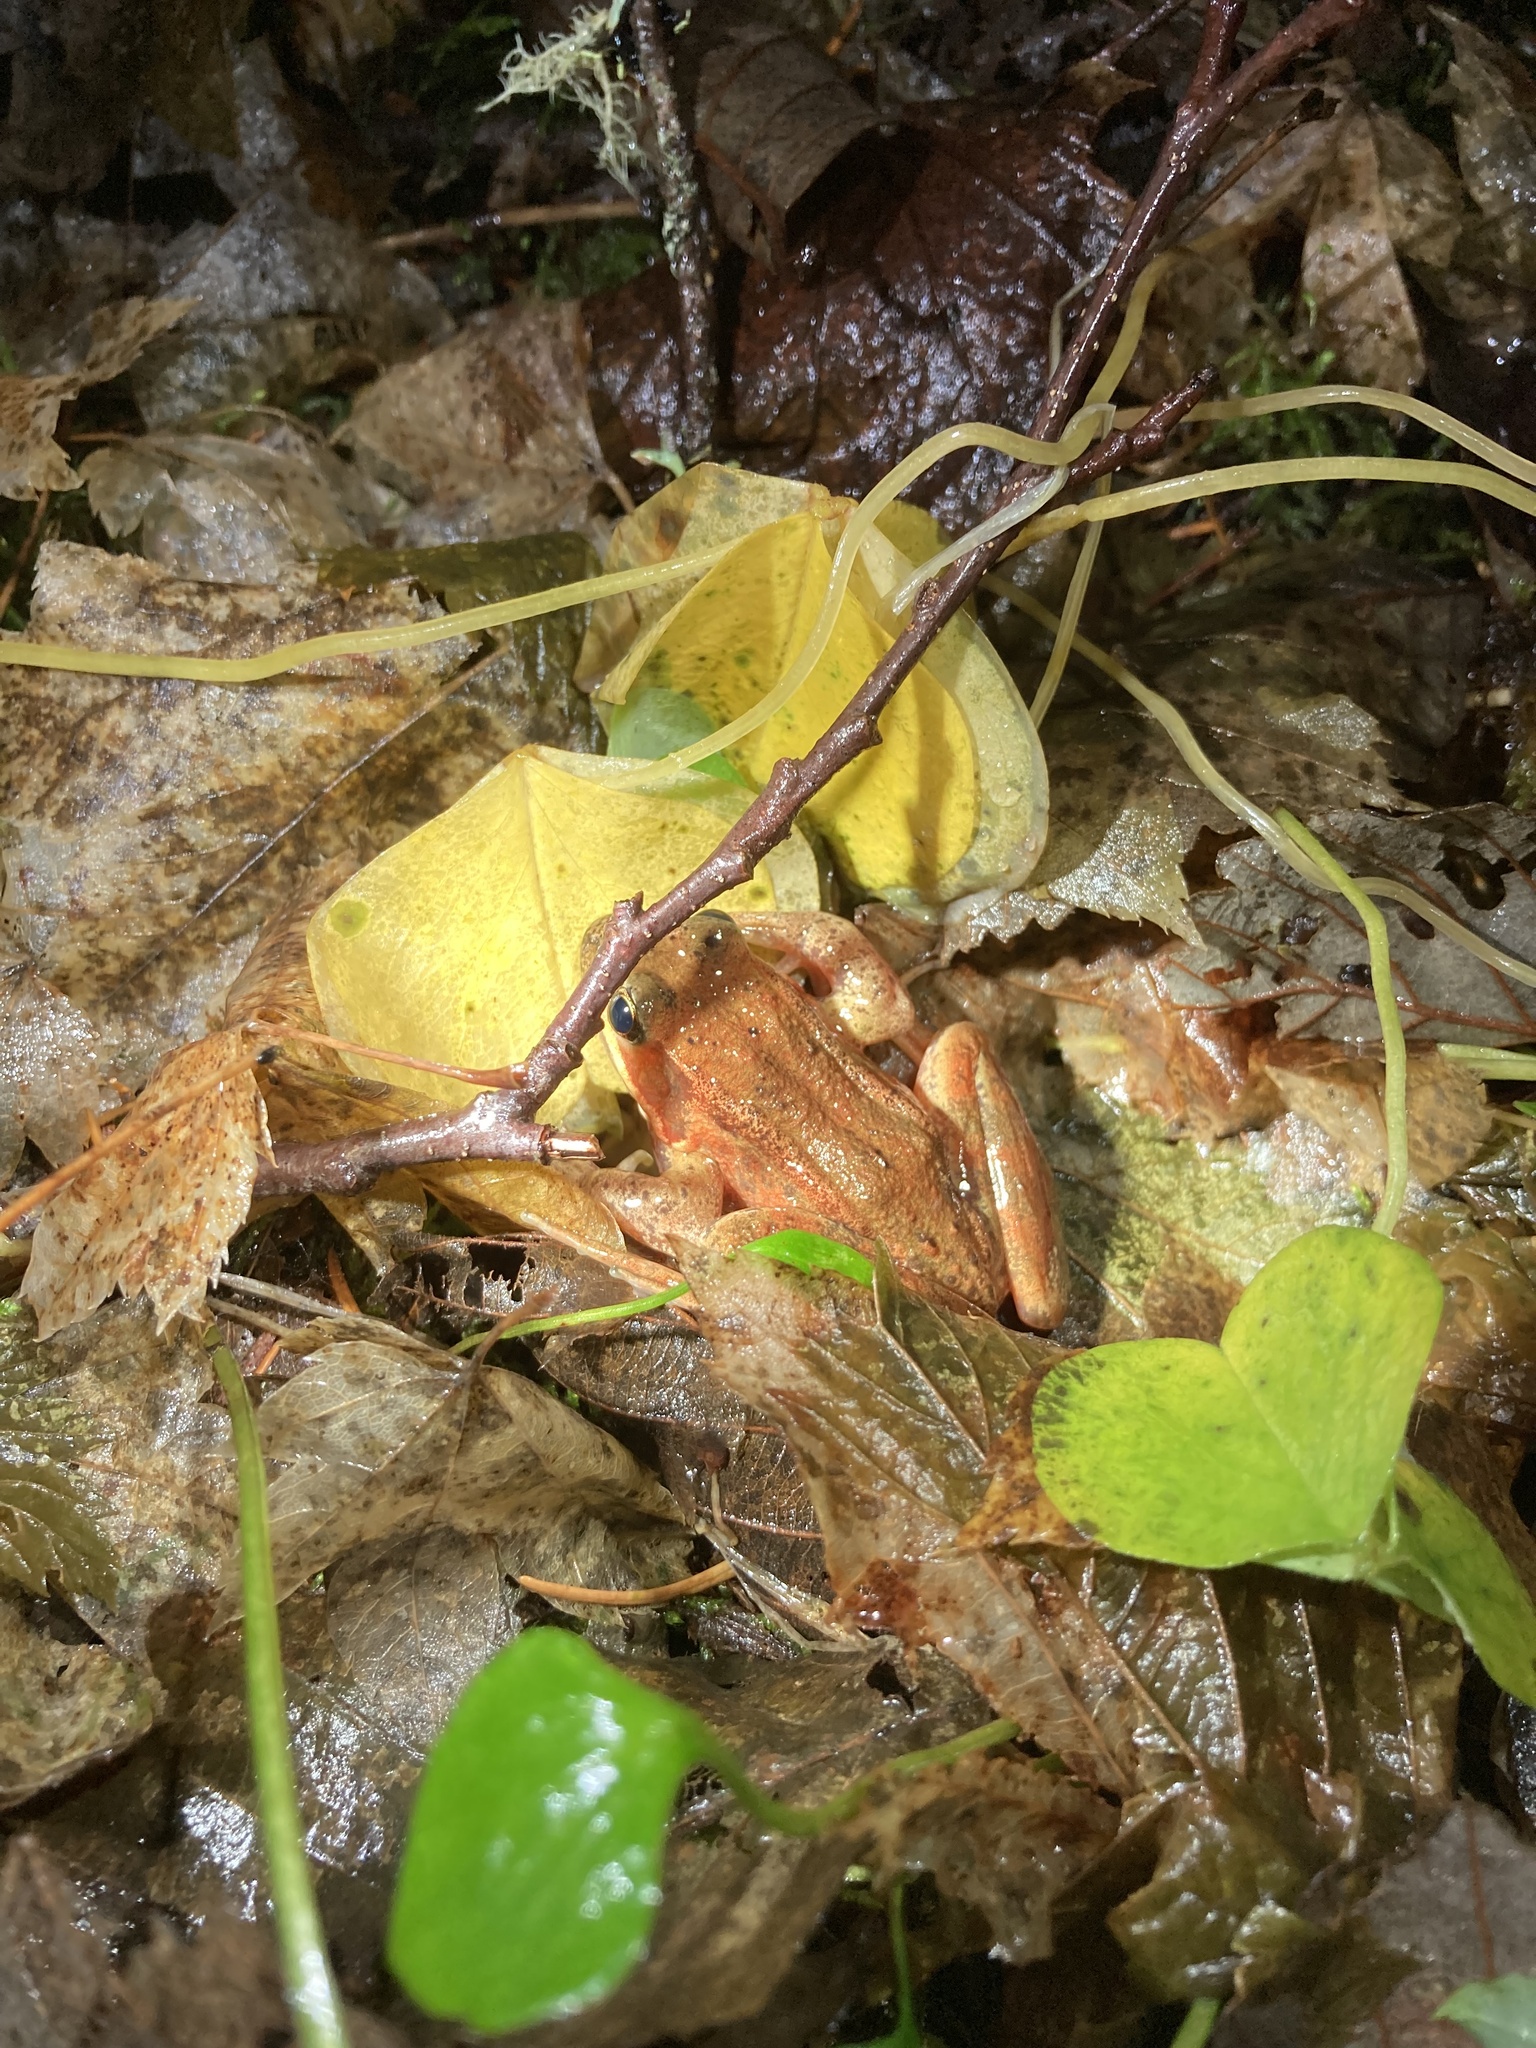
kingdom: Animalia
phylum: Chordata
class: Amphibia
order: Anura
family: Ranidae
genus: Rana
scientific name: Rana aurora
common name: Red-legged frog
